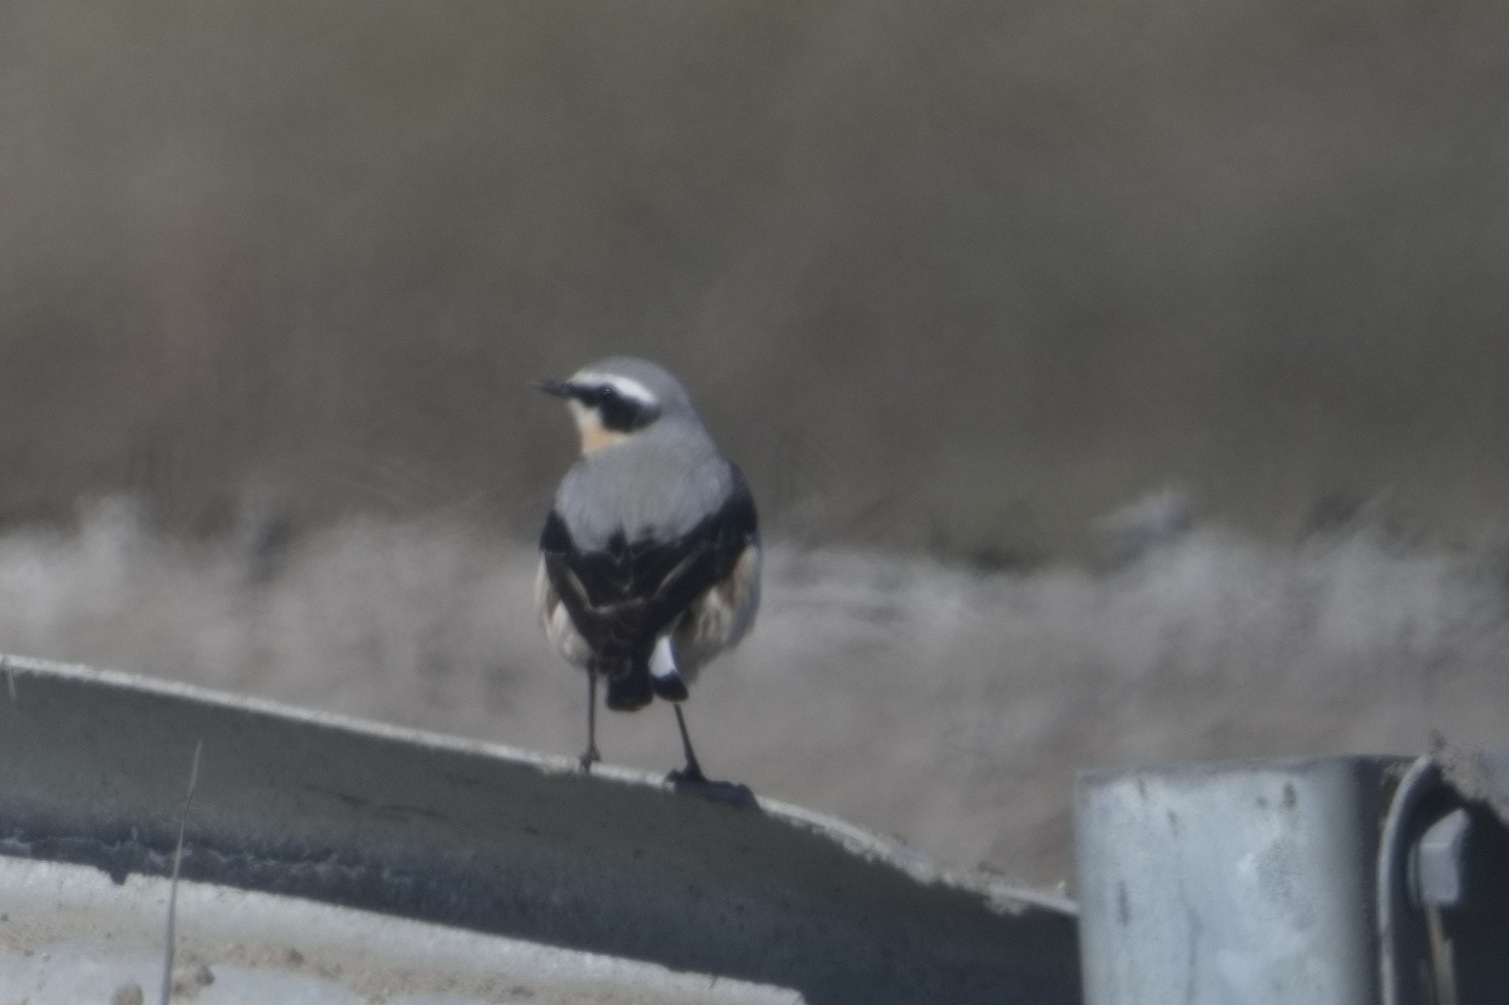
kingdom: Animalia
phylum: Chordata
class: Aves
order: Passeriformes
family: Muscicapidae
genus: Oenanthe
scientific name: Oenanthe oenanthe
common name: Northern wheatear
